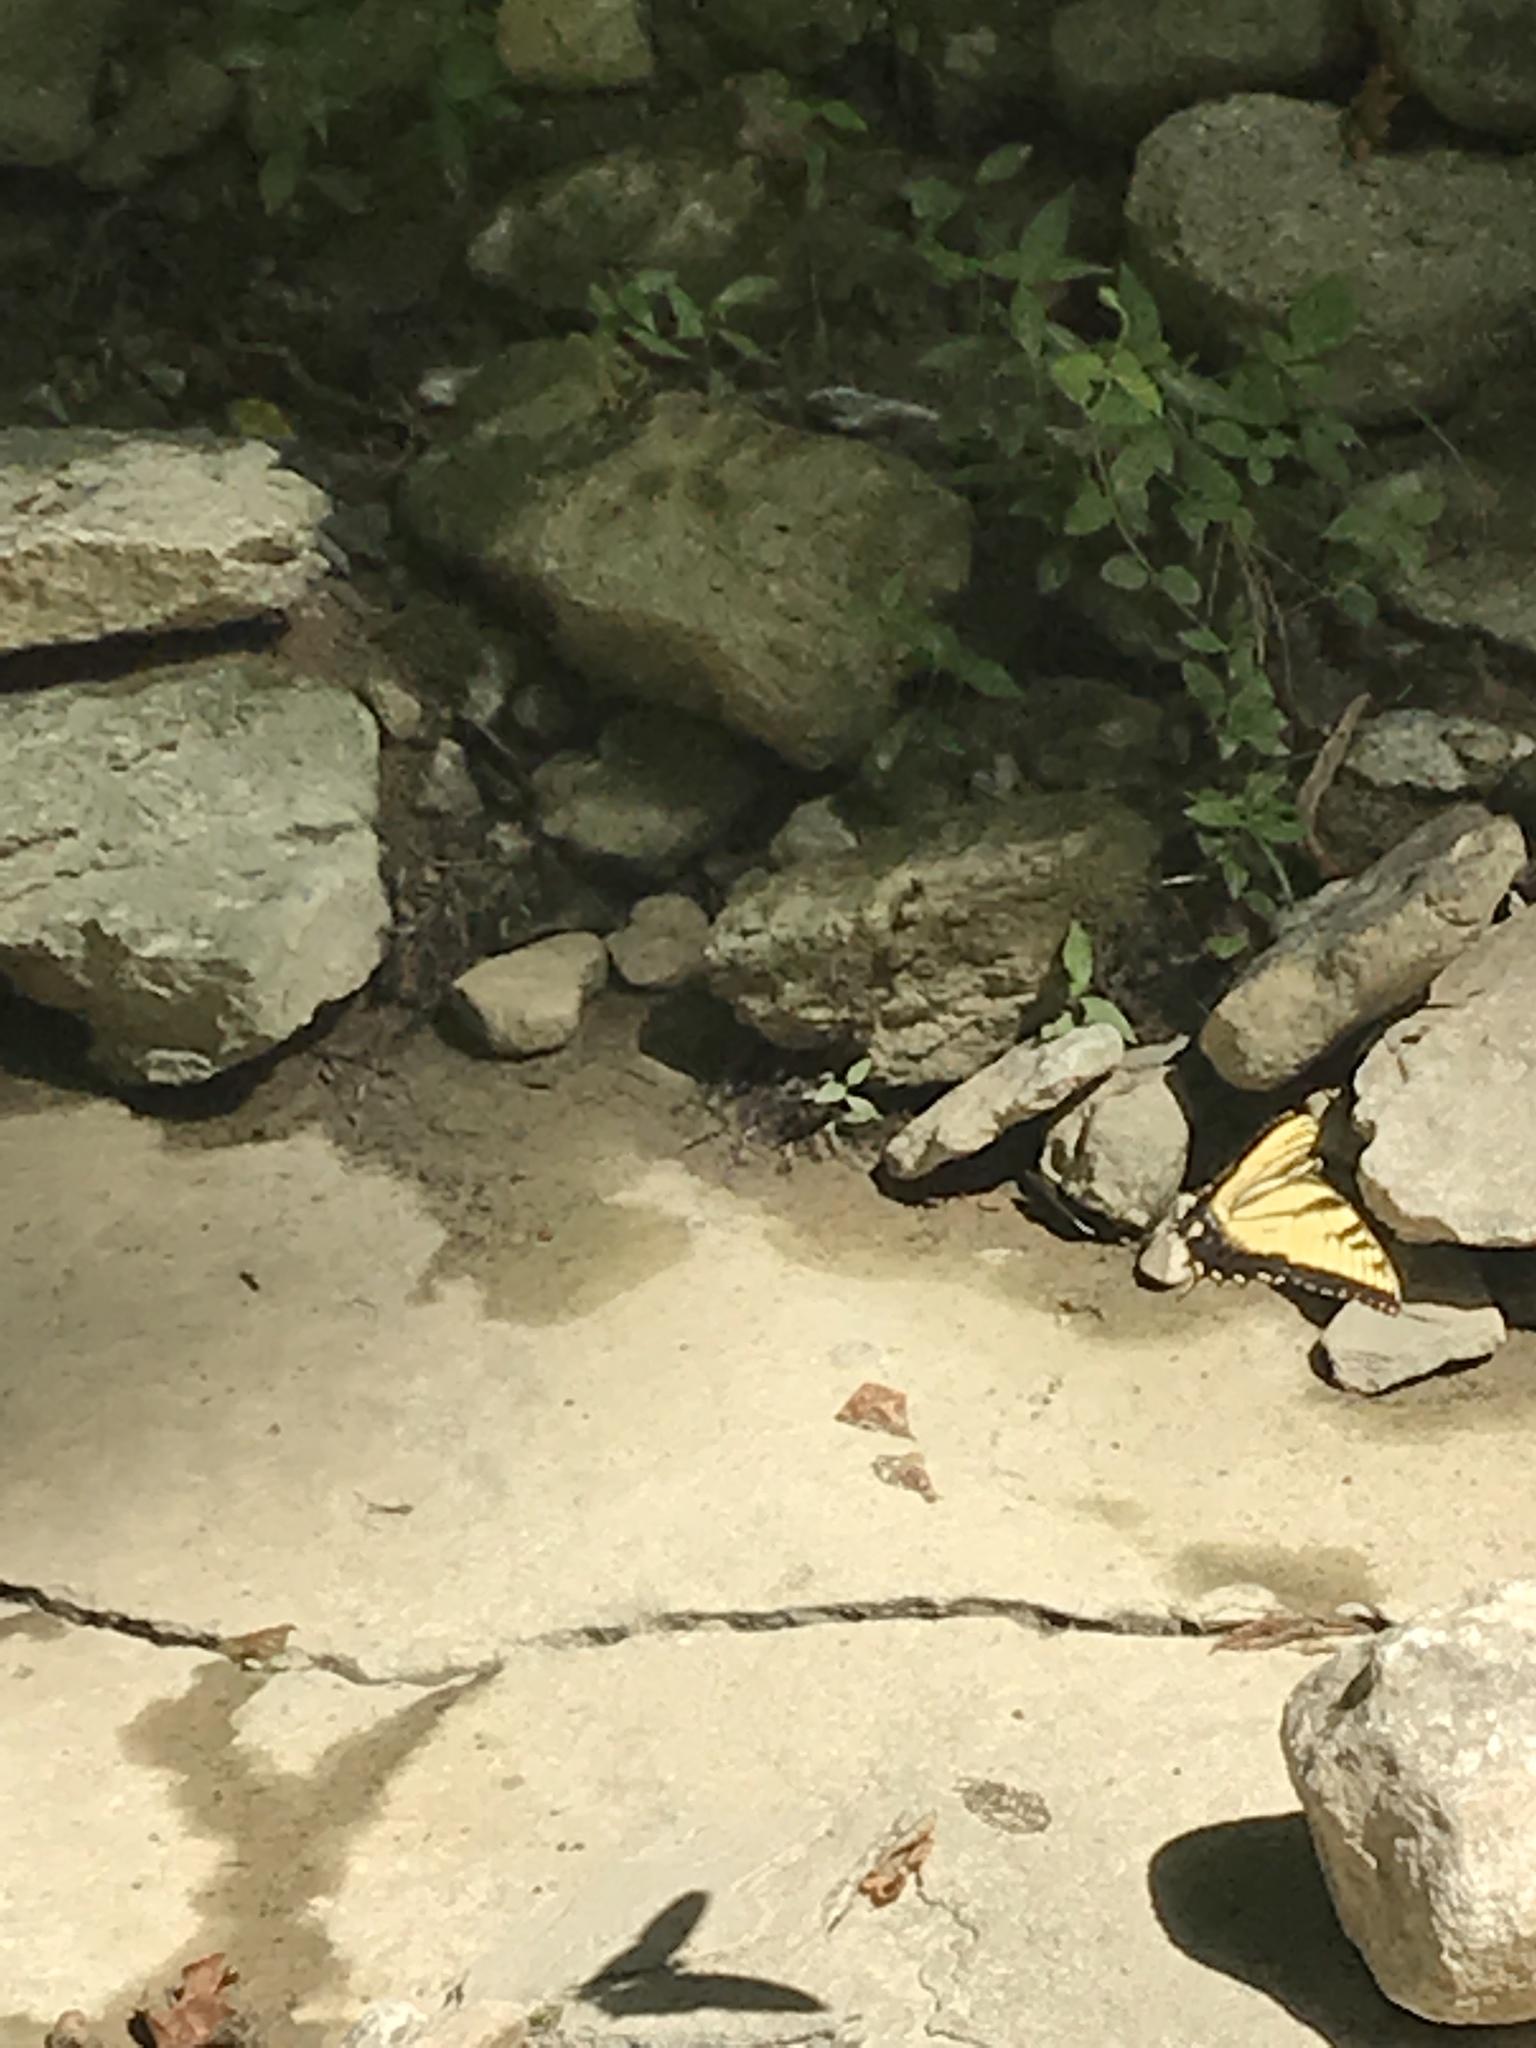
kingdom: Animalia
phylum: Arthropoda
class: Insecta
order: Lepidoptera
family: Papilionidae
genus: Papilio
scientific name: Papilio glaucus
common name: Tiger swallowtail
